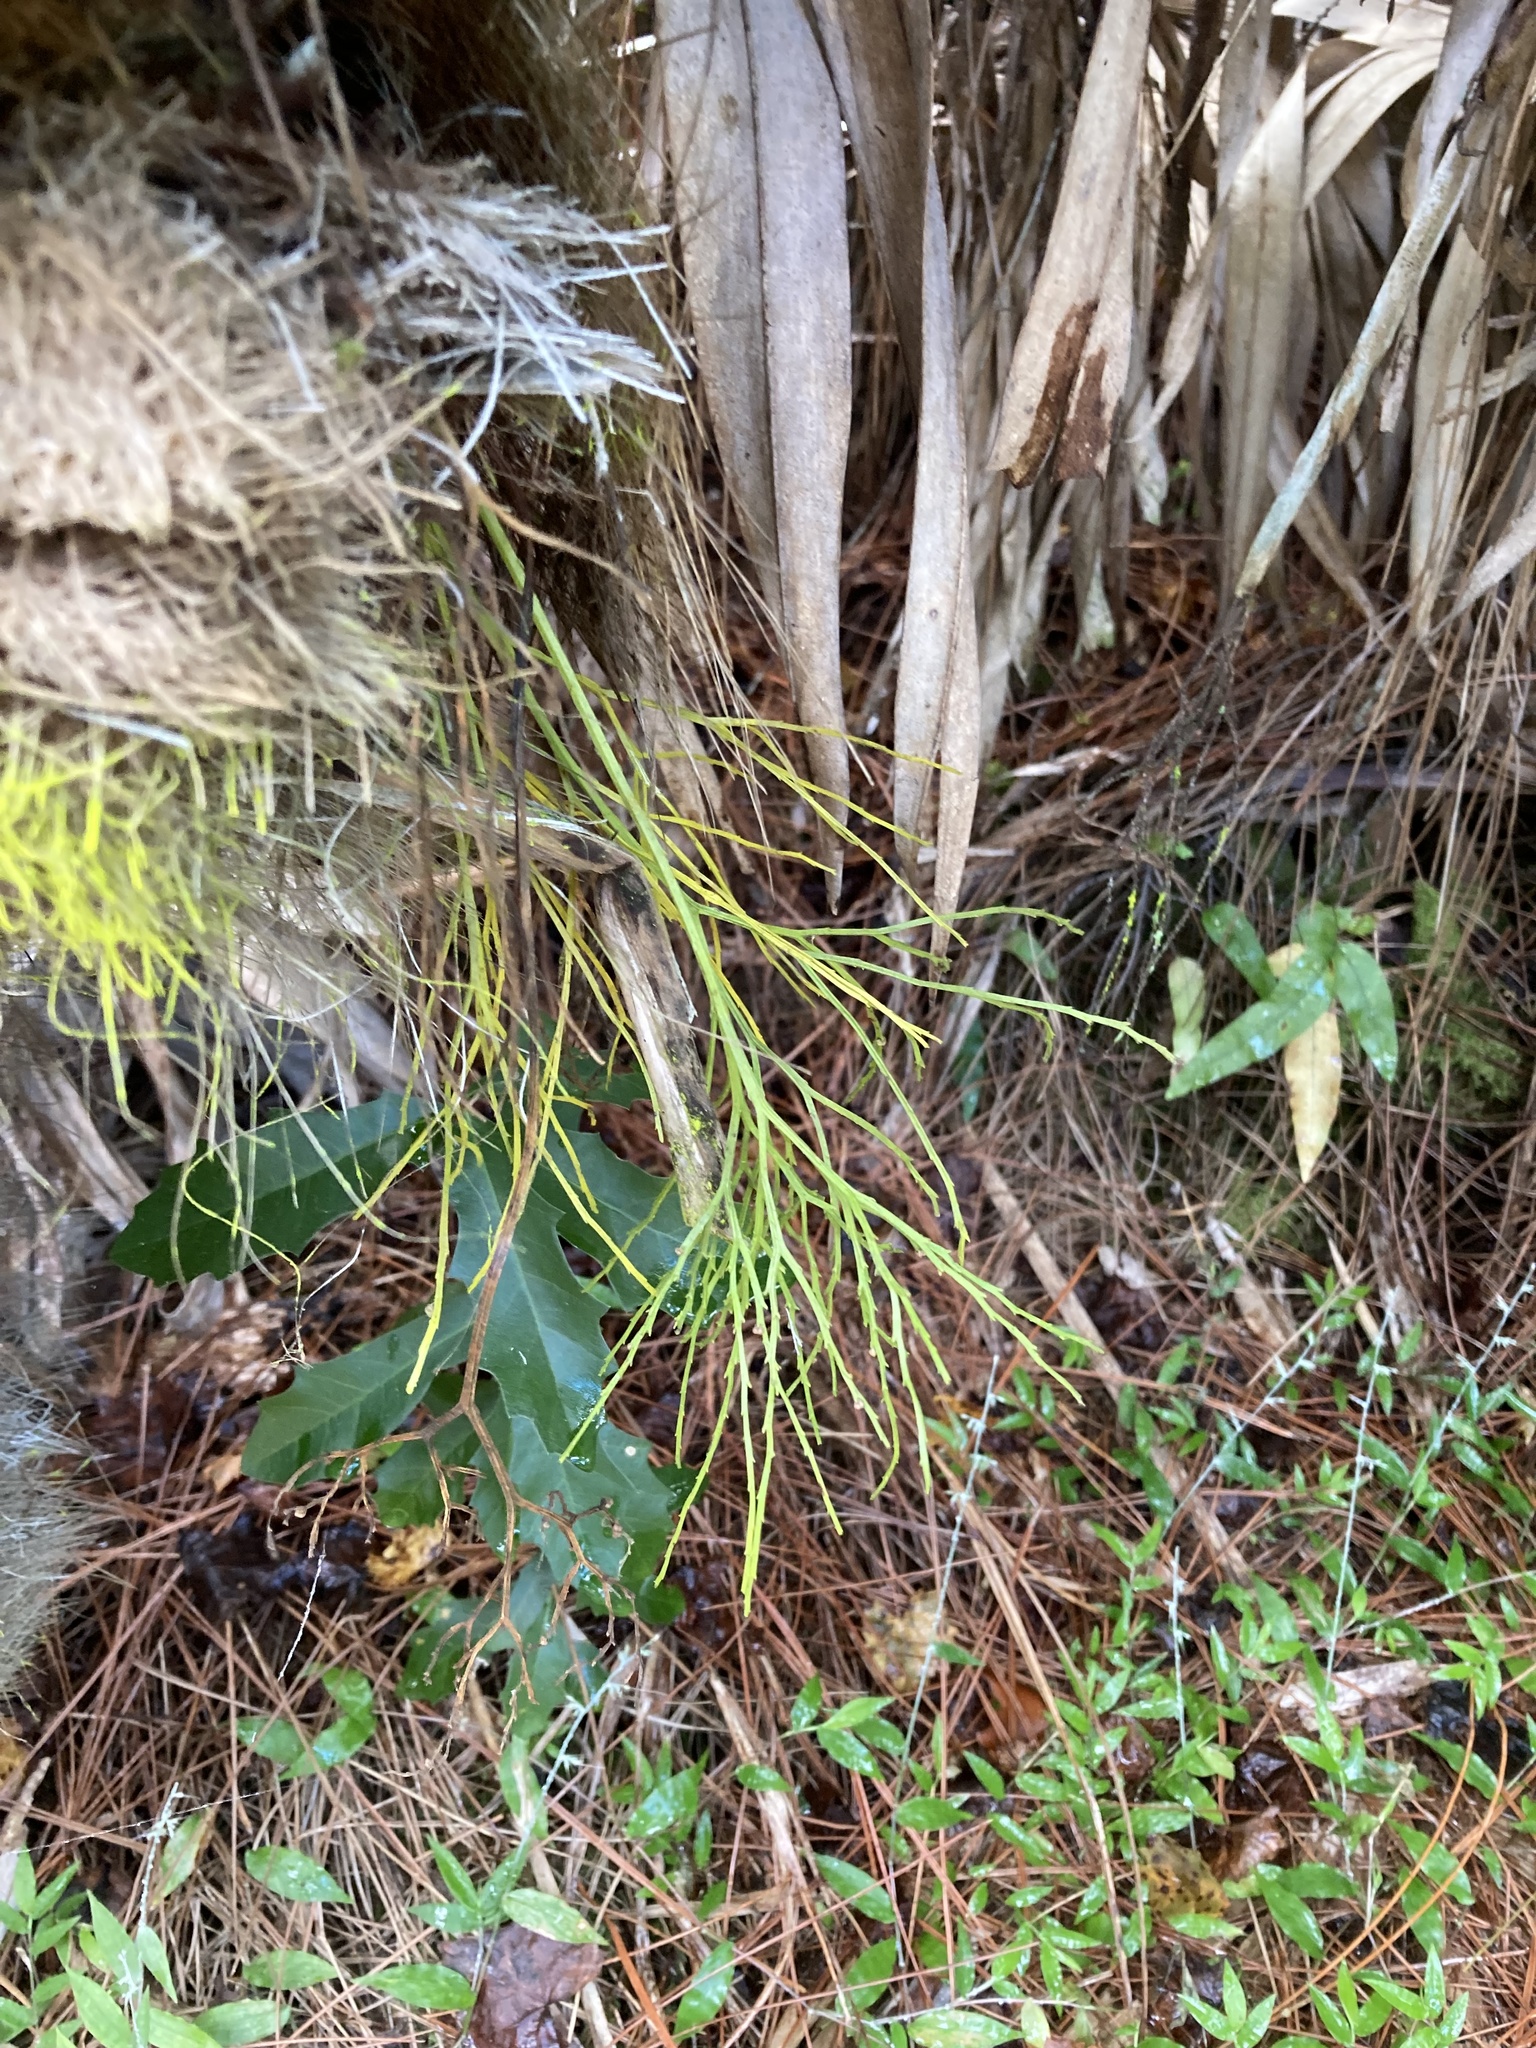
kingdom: Plantae
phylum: Tracheophyta
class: Polypodiopsida
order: Psilotales
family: Psilotaceae
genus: Psilotum
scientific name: Psilotum nudum
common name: Skeleton fork fern
